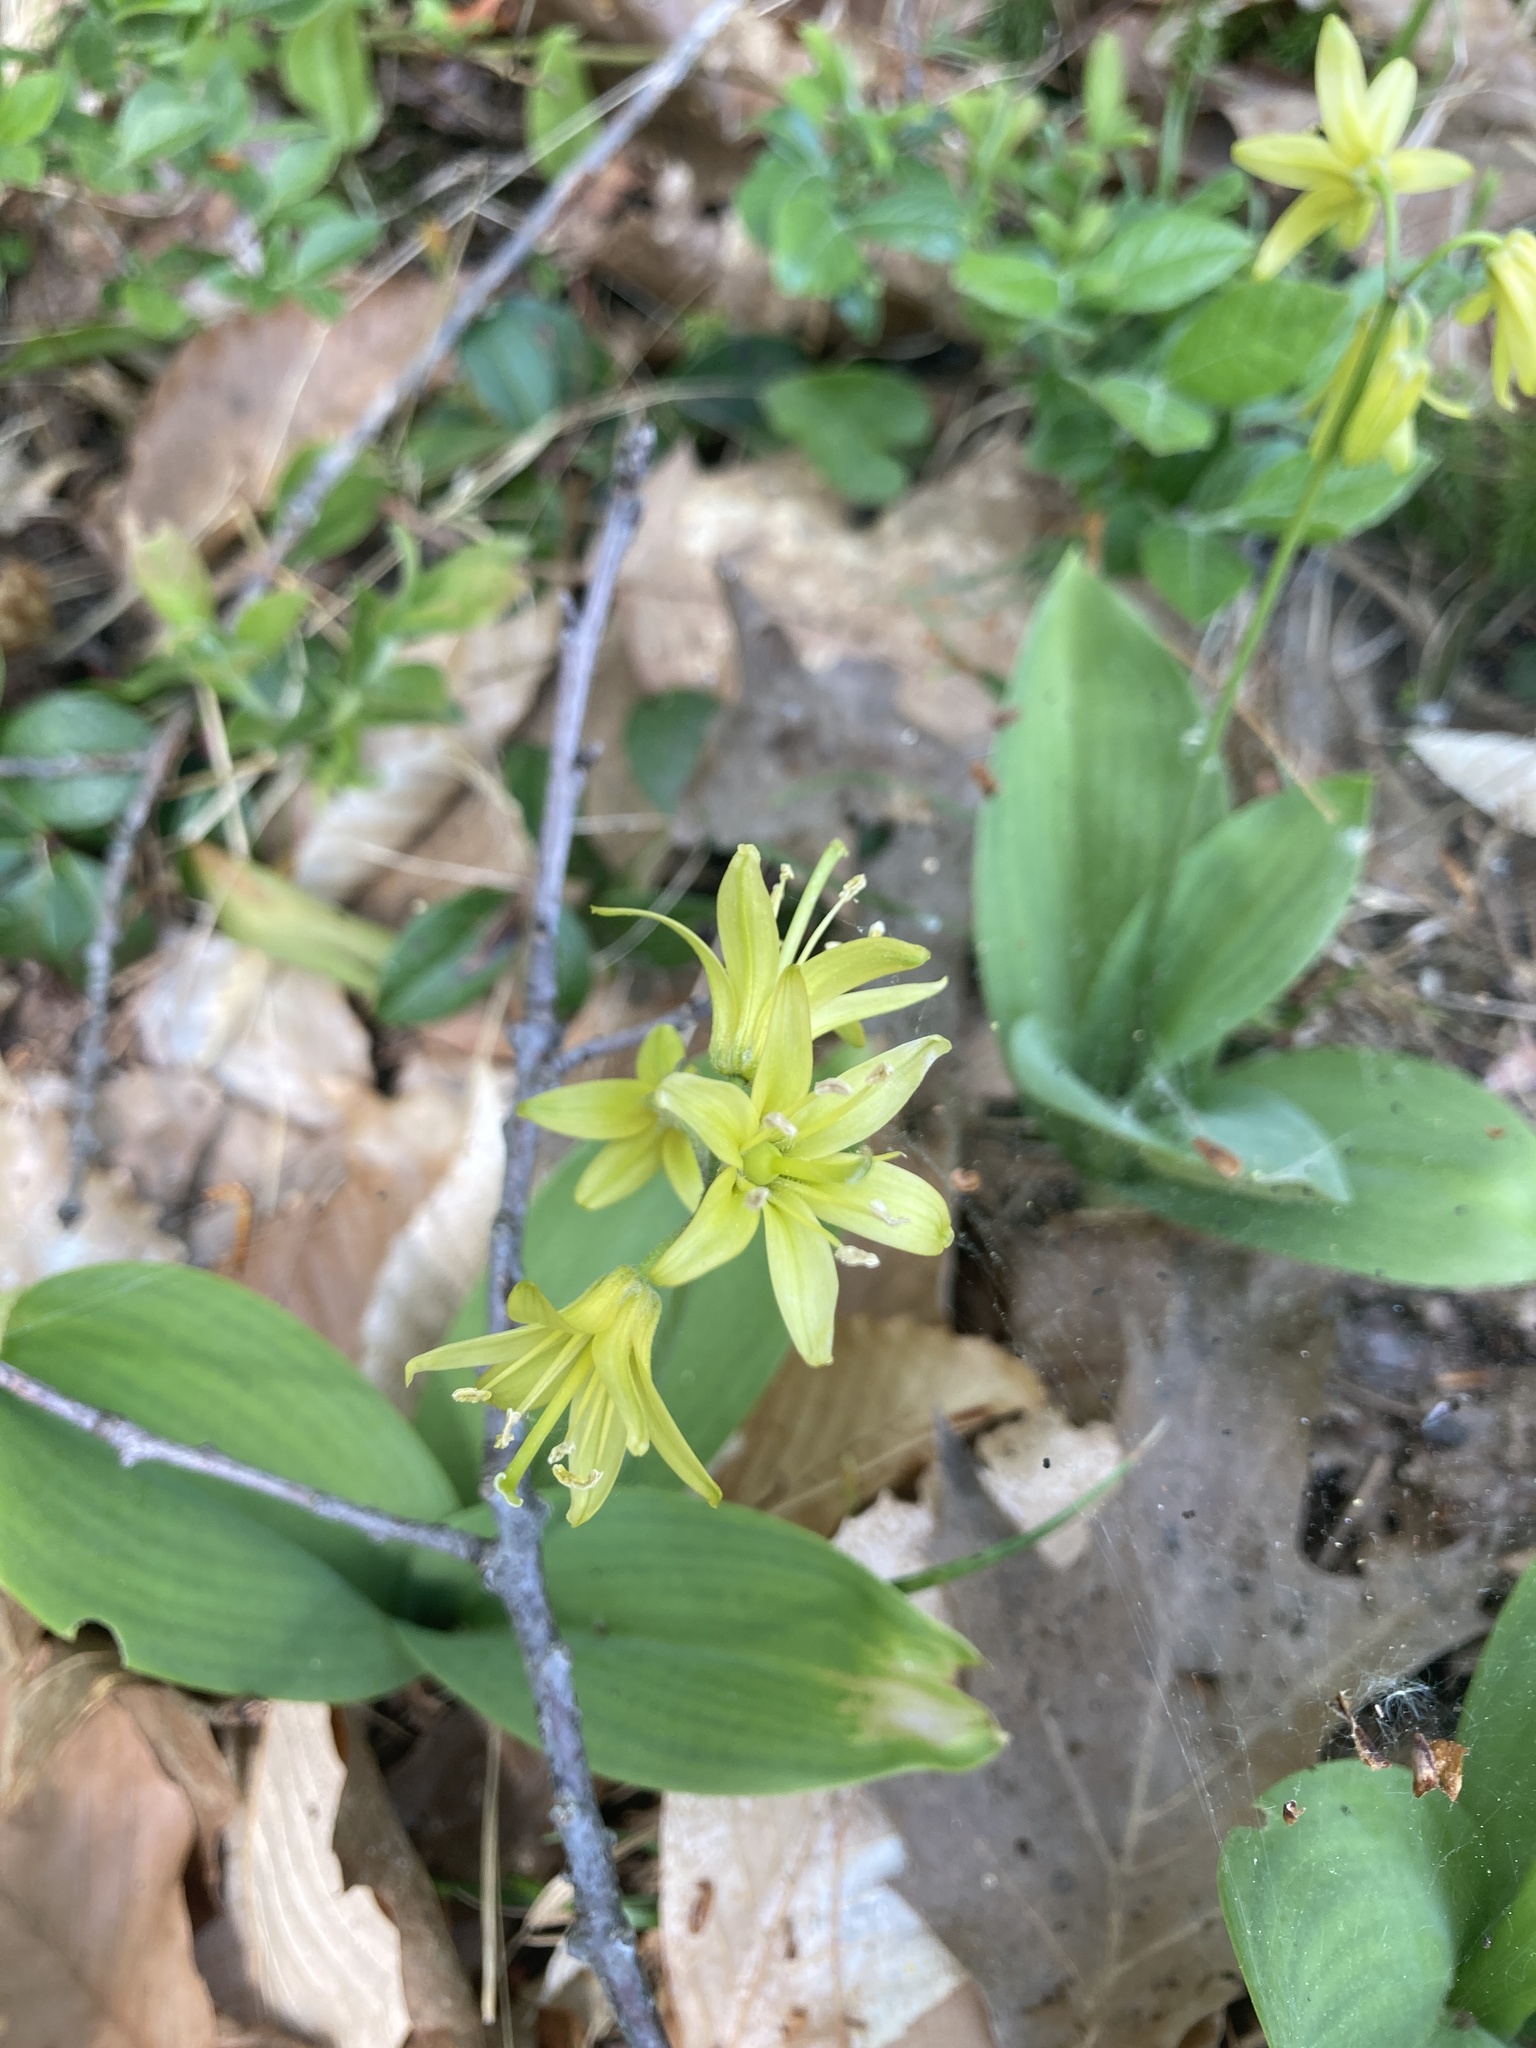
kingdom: Plantae
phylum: Tracheophyta
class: Liliopsida
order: Liliales
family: Liliaceae
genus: Clintonia
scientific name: Clintonia borealis
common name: Yellow clintonia
